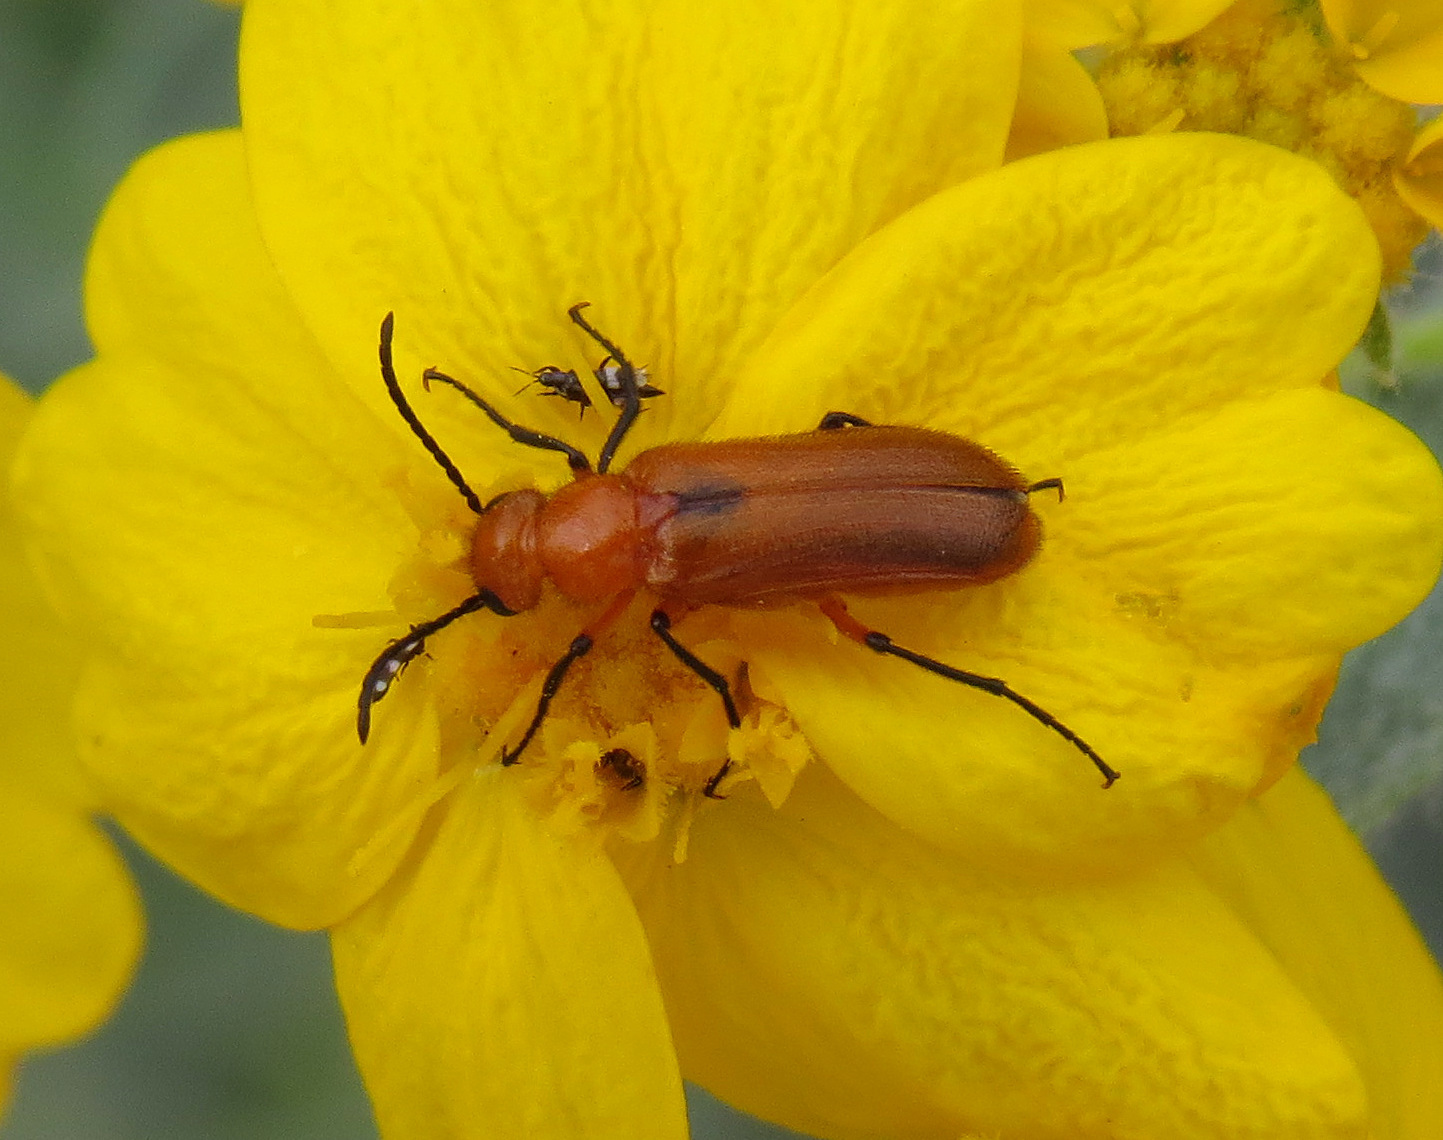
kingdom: Animalia
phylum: Arthropoda
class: Insecta
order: Coleoptera
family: Meloidae
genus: Nemognatha
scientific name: Nemognatha nigripennis
